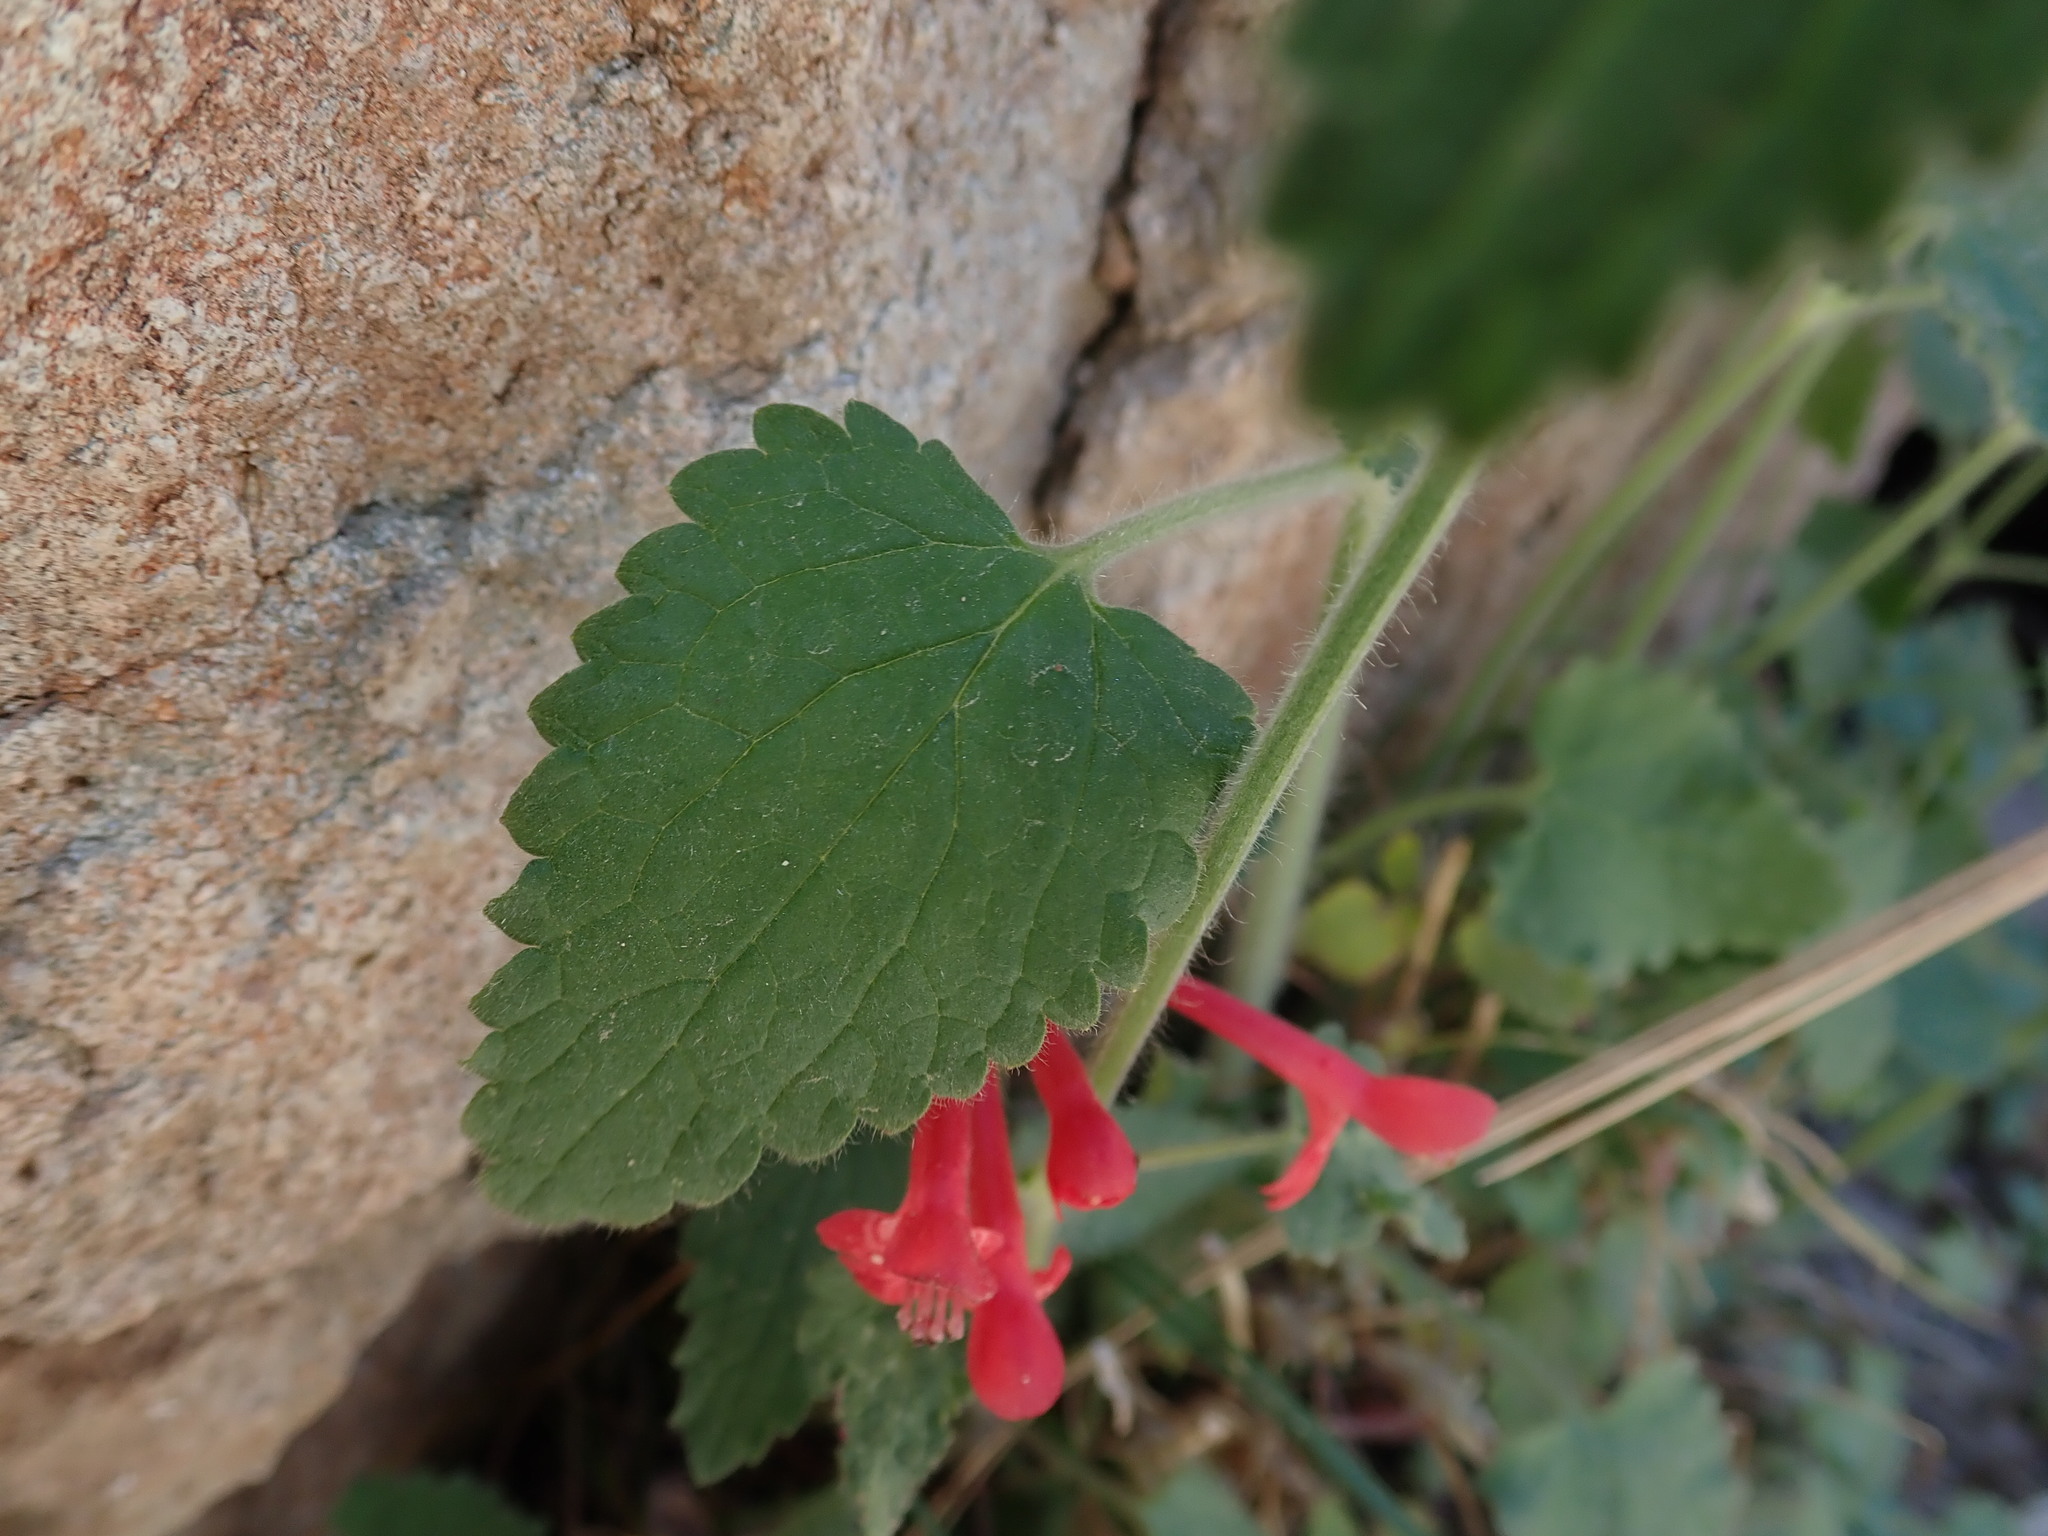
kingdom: Plantae
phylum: Tracheophyta
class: Magnoliopsida
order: Lamiales
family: Lamiaceae
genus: Stachys
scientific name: Stachys coccinea
